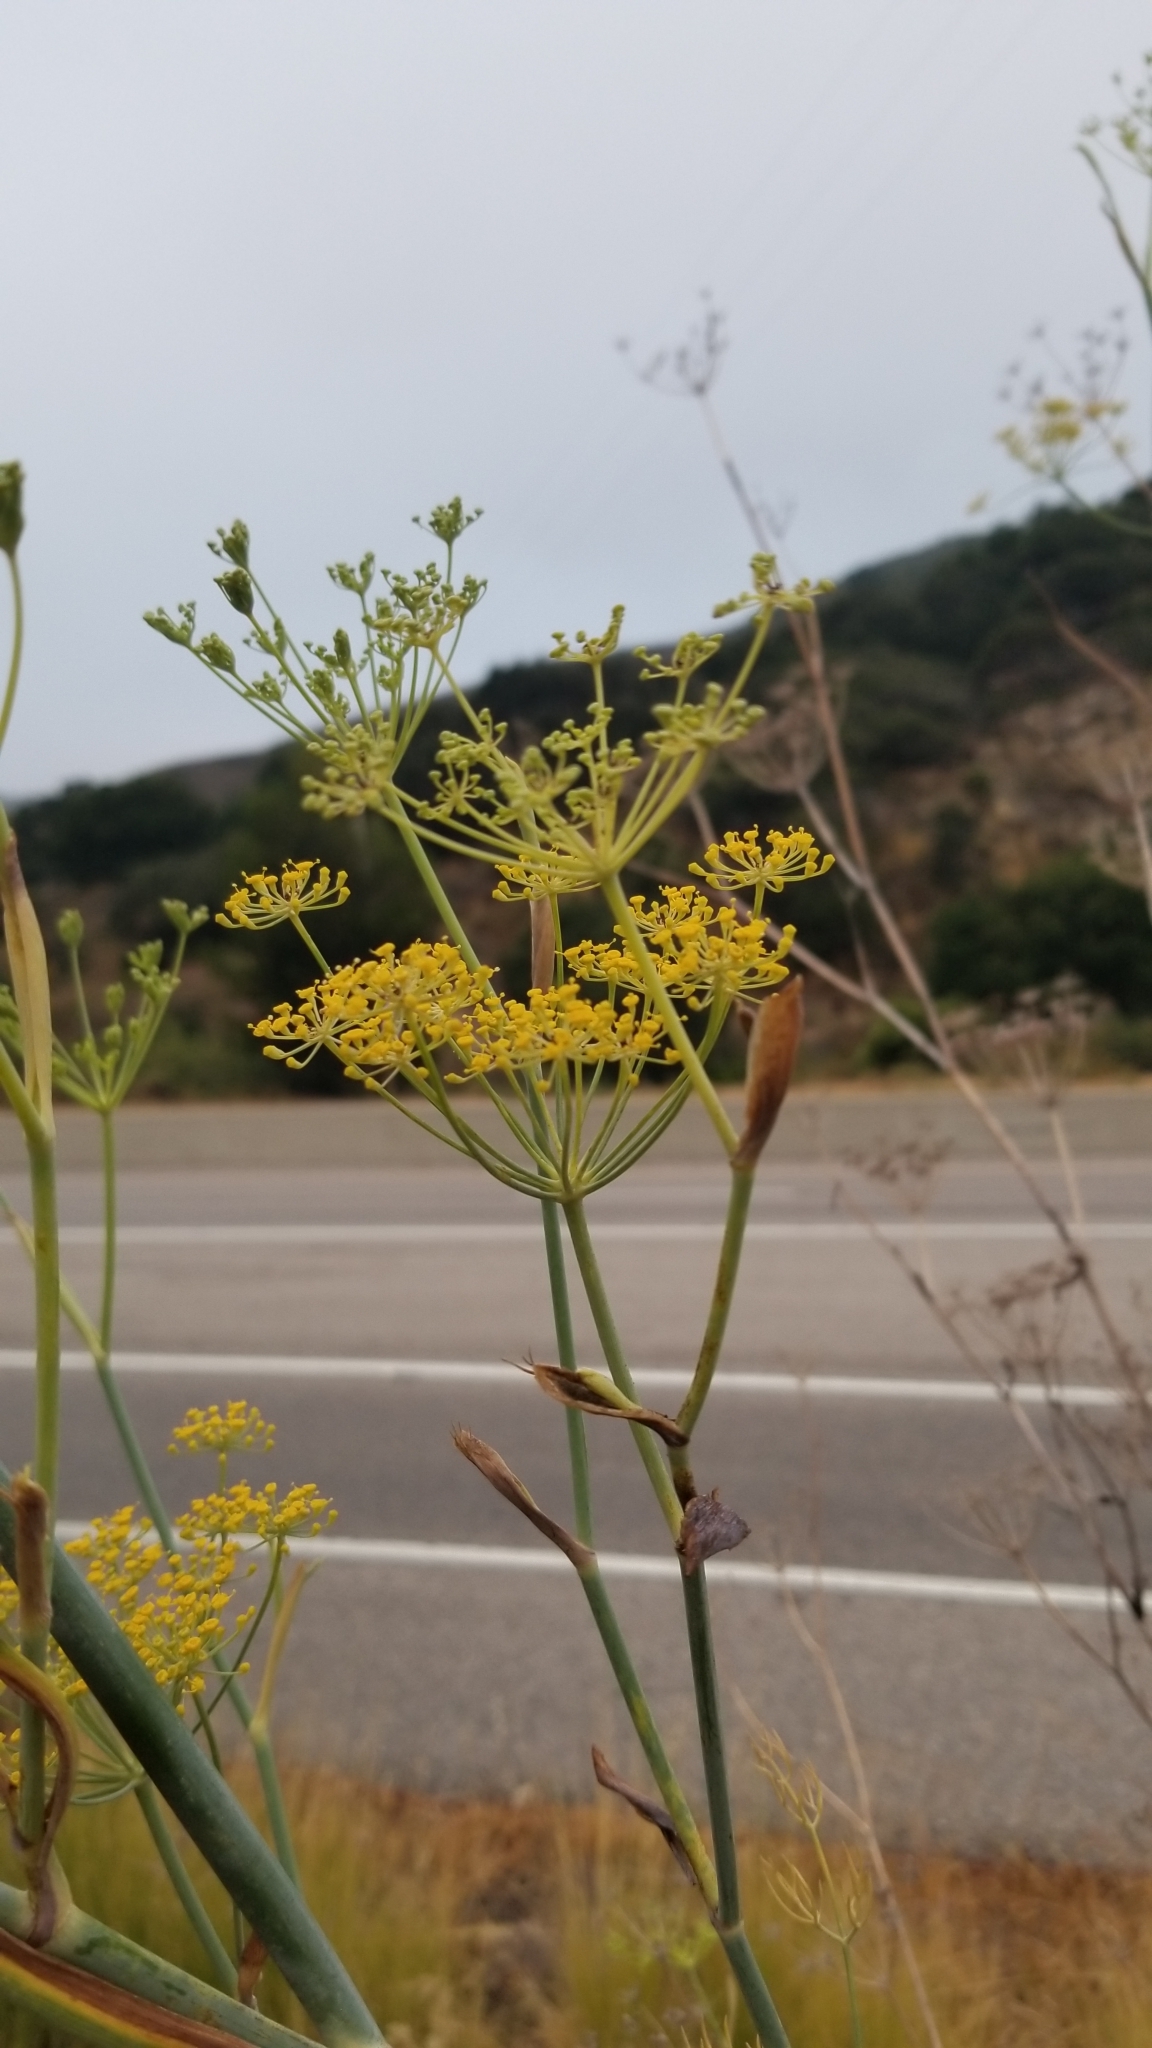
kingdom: Plantae
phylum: Tracheophyta
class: Magnoliopsida
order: Apiales
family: Apiaceae
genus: Foeniculum
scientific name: Foeniculum vulgare
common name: Fennel
